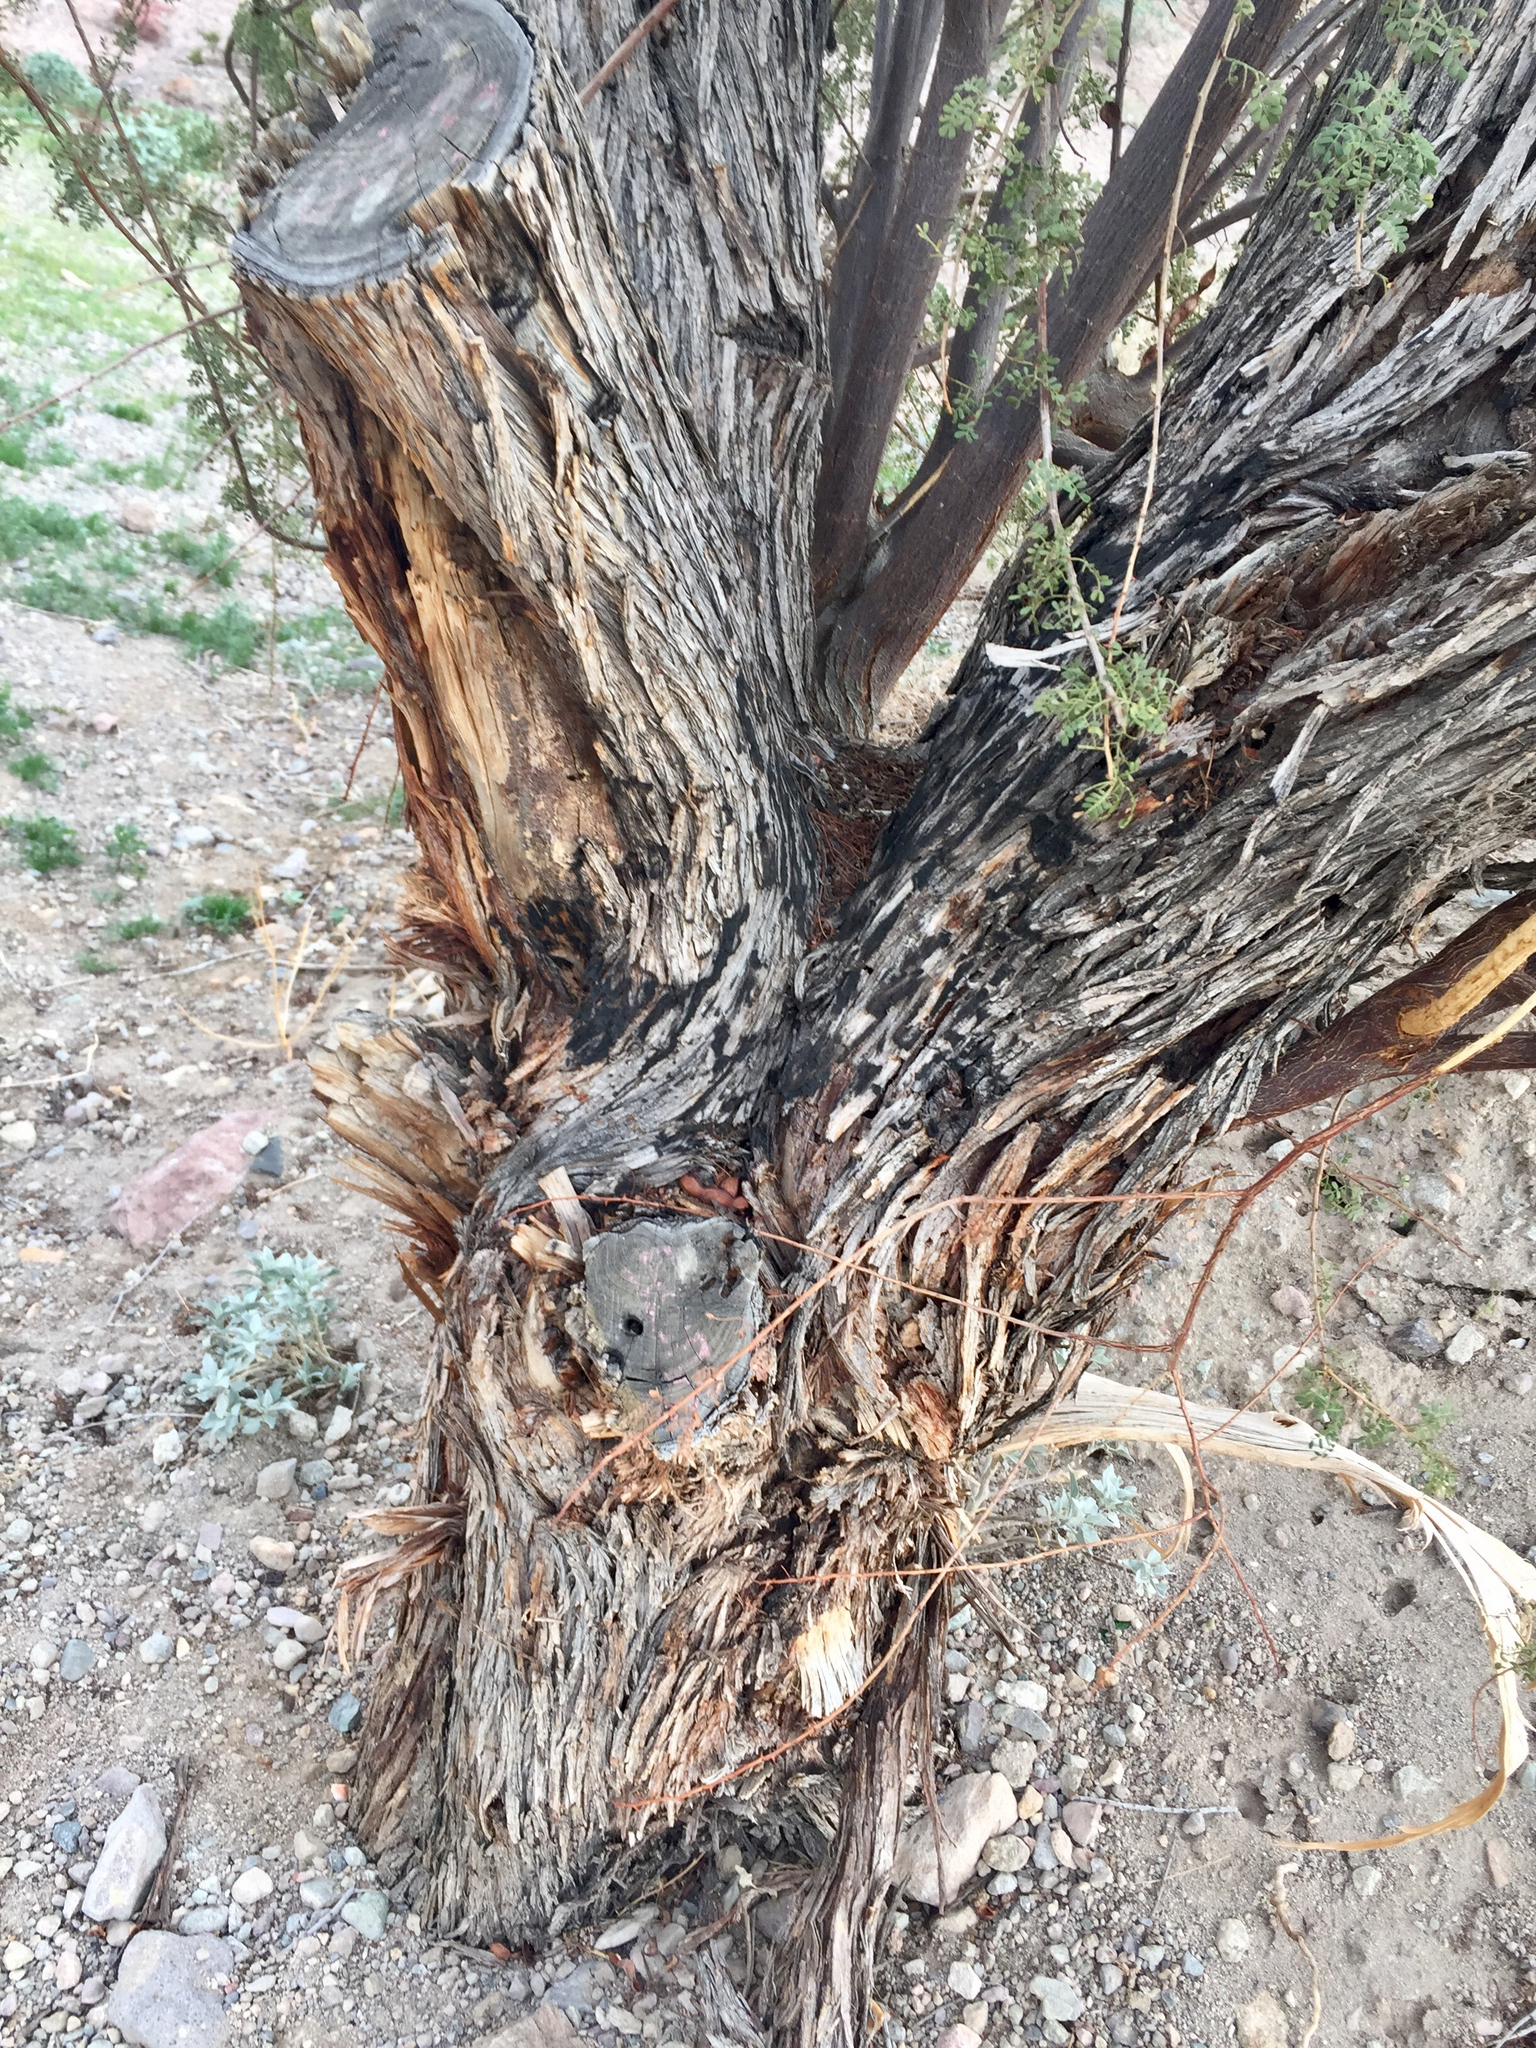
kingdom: Plantae
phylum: Tracheophyta
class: Magnoliopsida
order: Fabales
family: Fabaceae
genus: Senegalia
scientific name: Senegalia greggii
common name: Texas-mimosa
